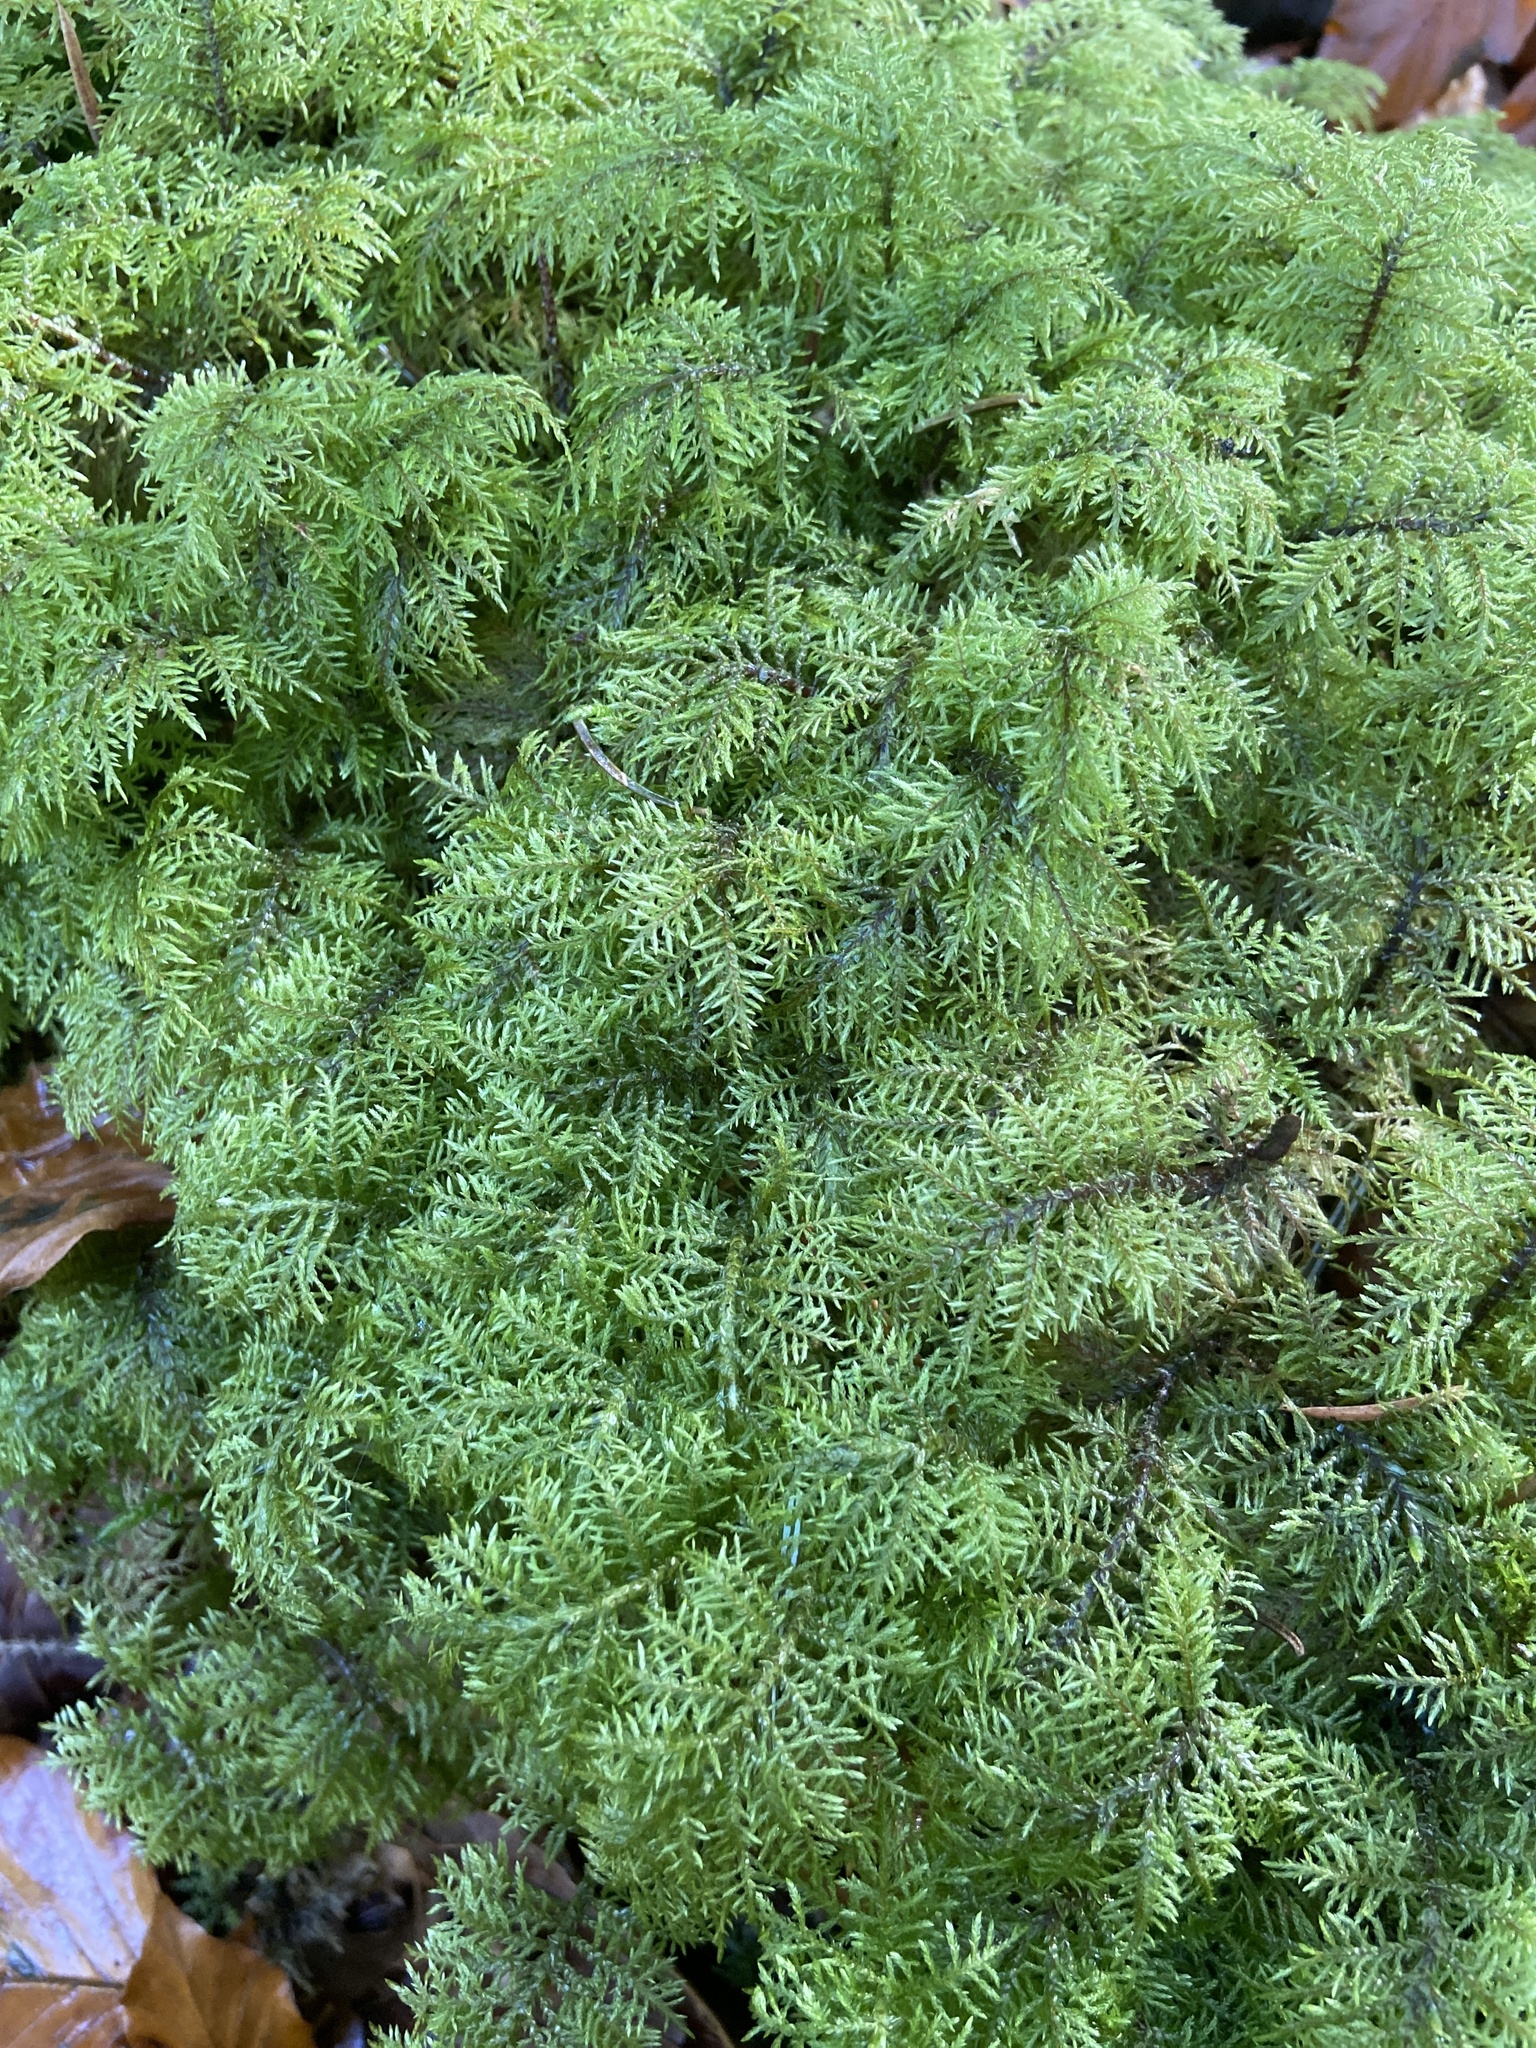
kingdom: Plantae
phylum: Bryophyta
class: Bryopsida
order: Hypnales
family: Hylocomiaceae
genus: Hylocomium
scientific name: Hylocomium splendens
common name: Stairstep moss
